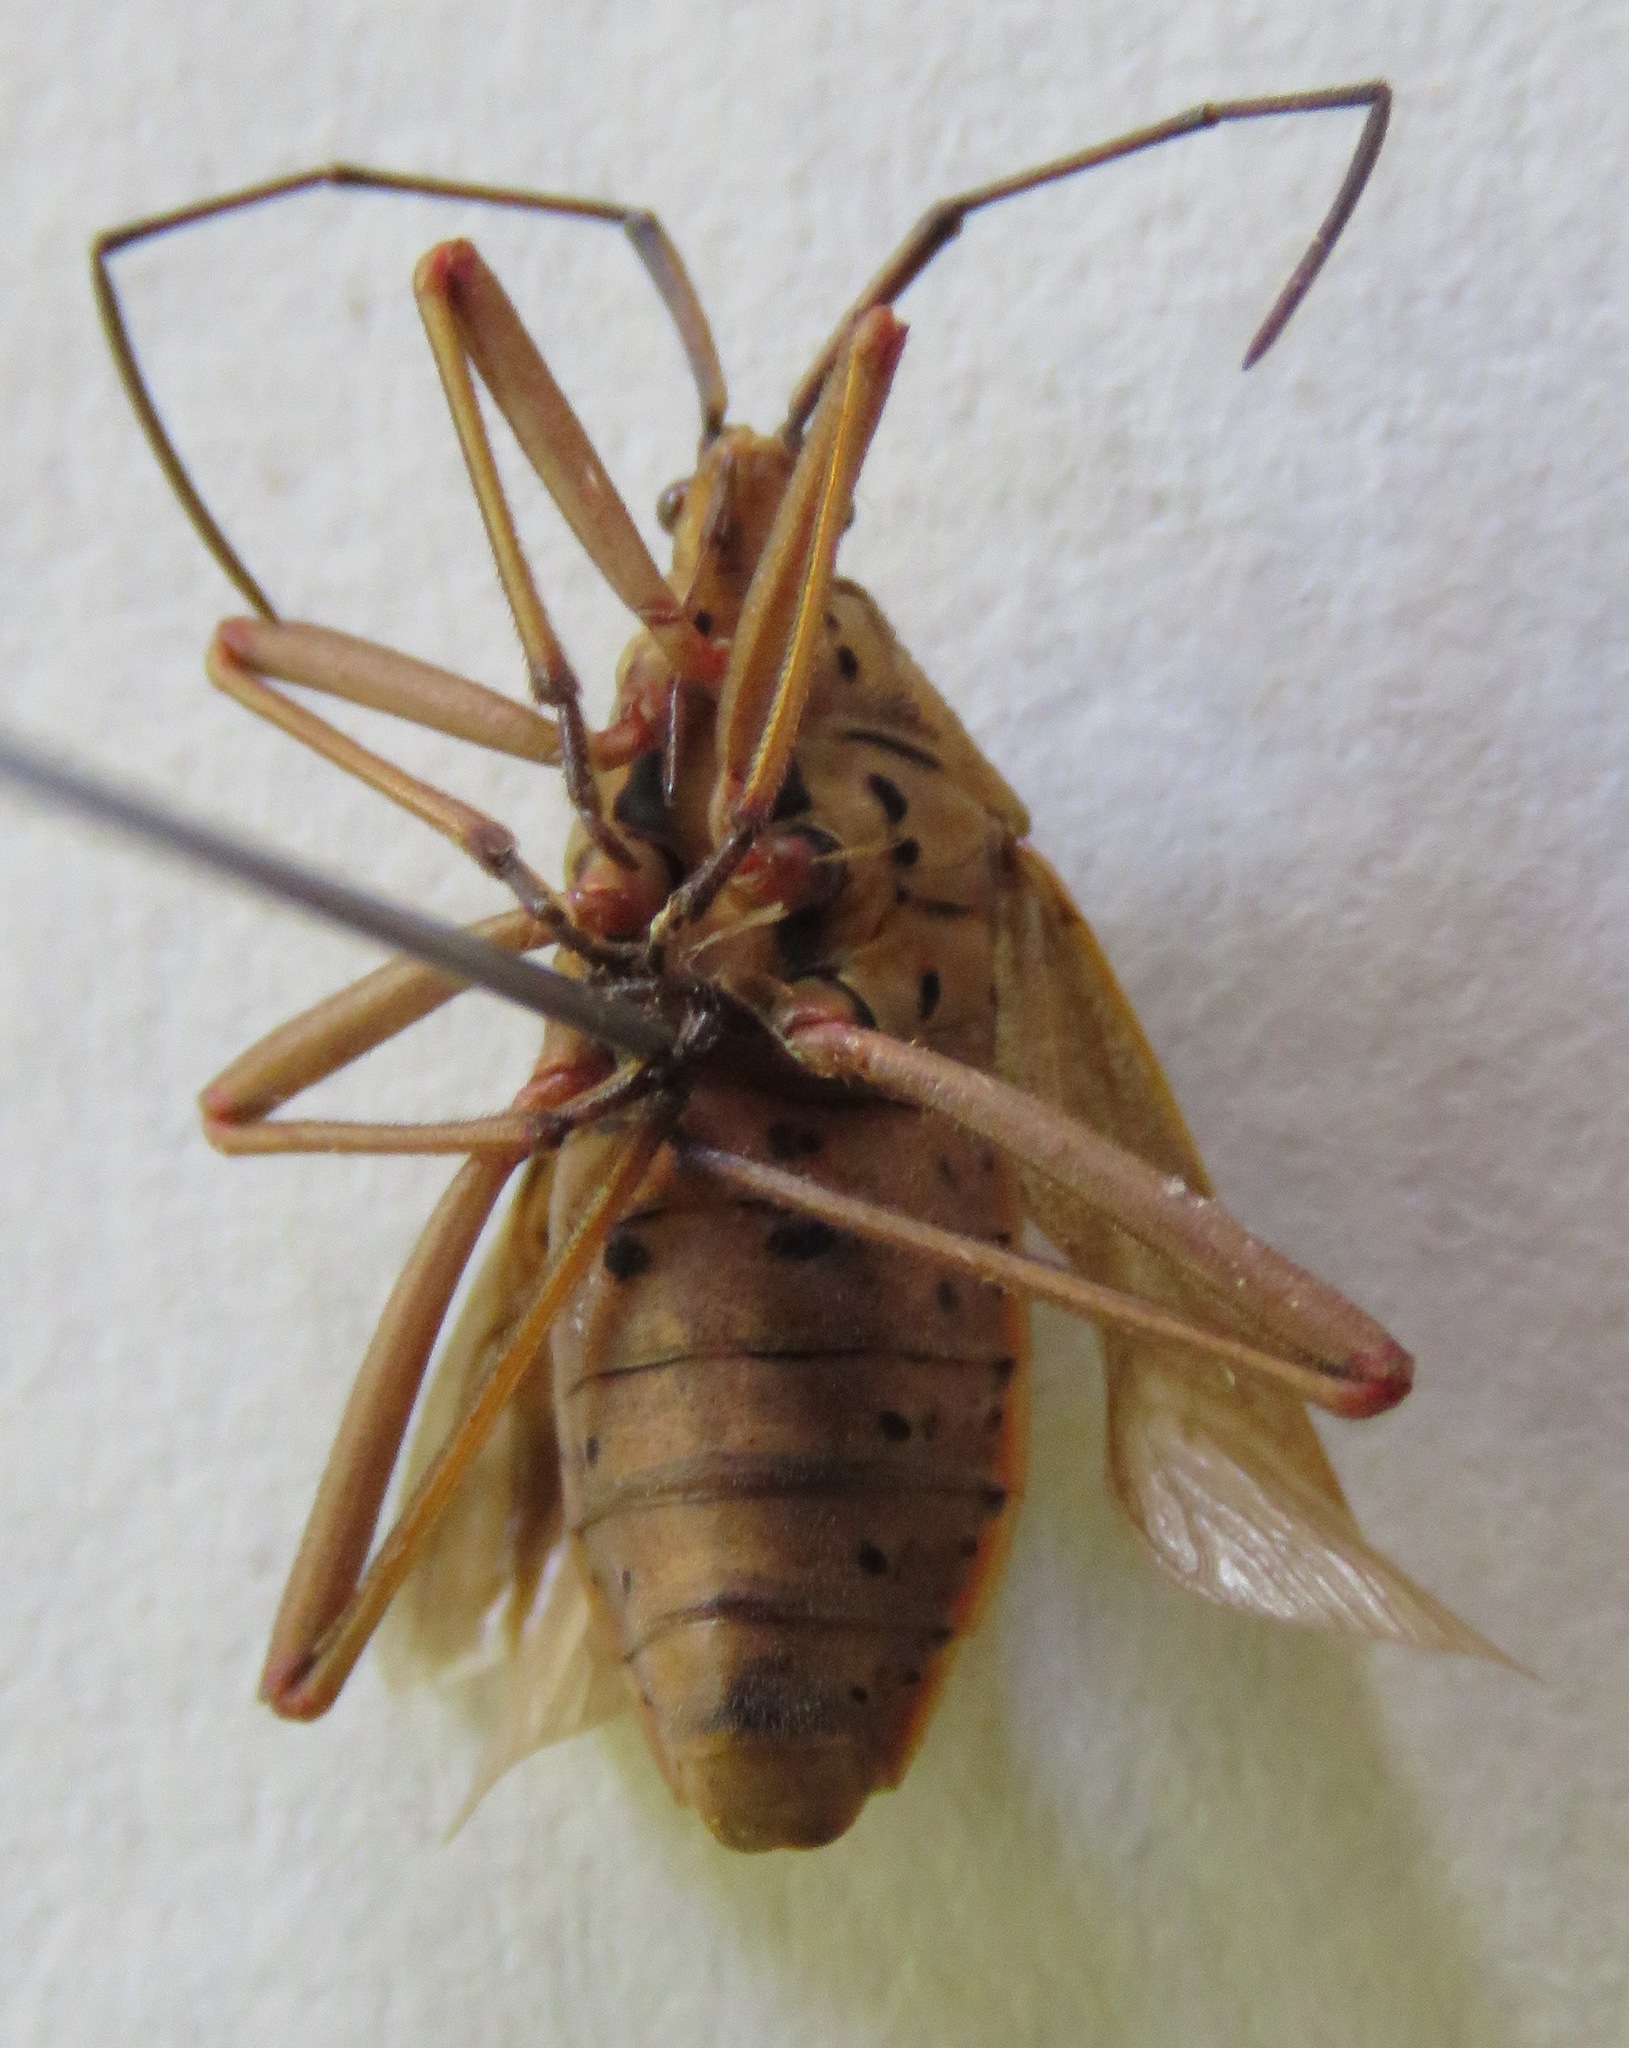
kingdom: Animalia
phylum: Arthropoda
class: Insecta
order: Hemiptera
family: Coreidae
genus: Nyttum
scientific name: Nyttum punctatum
